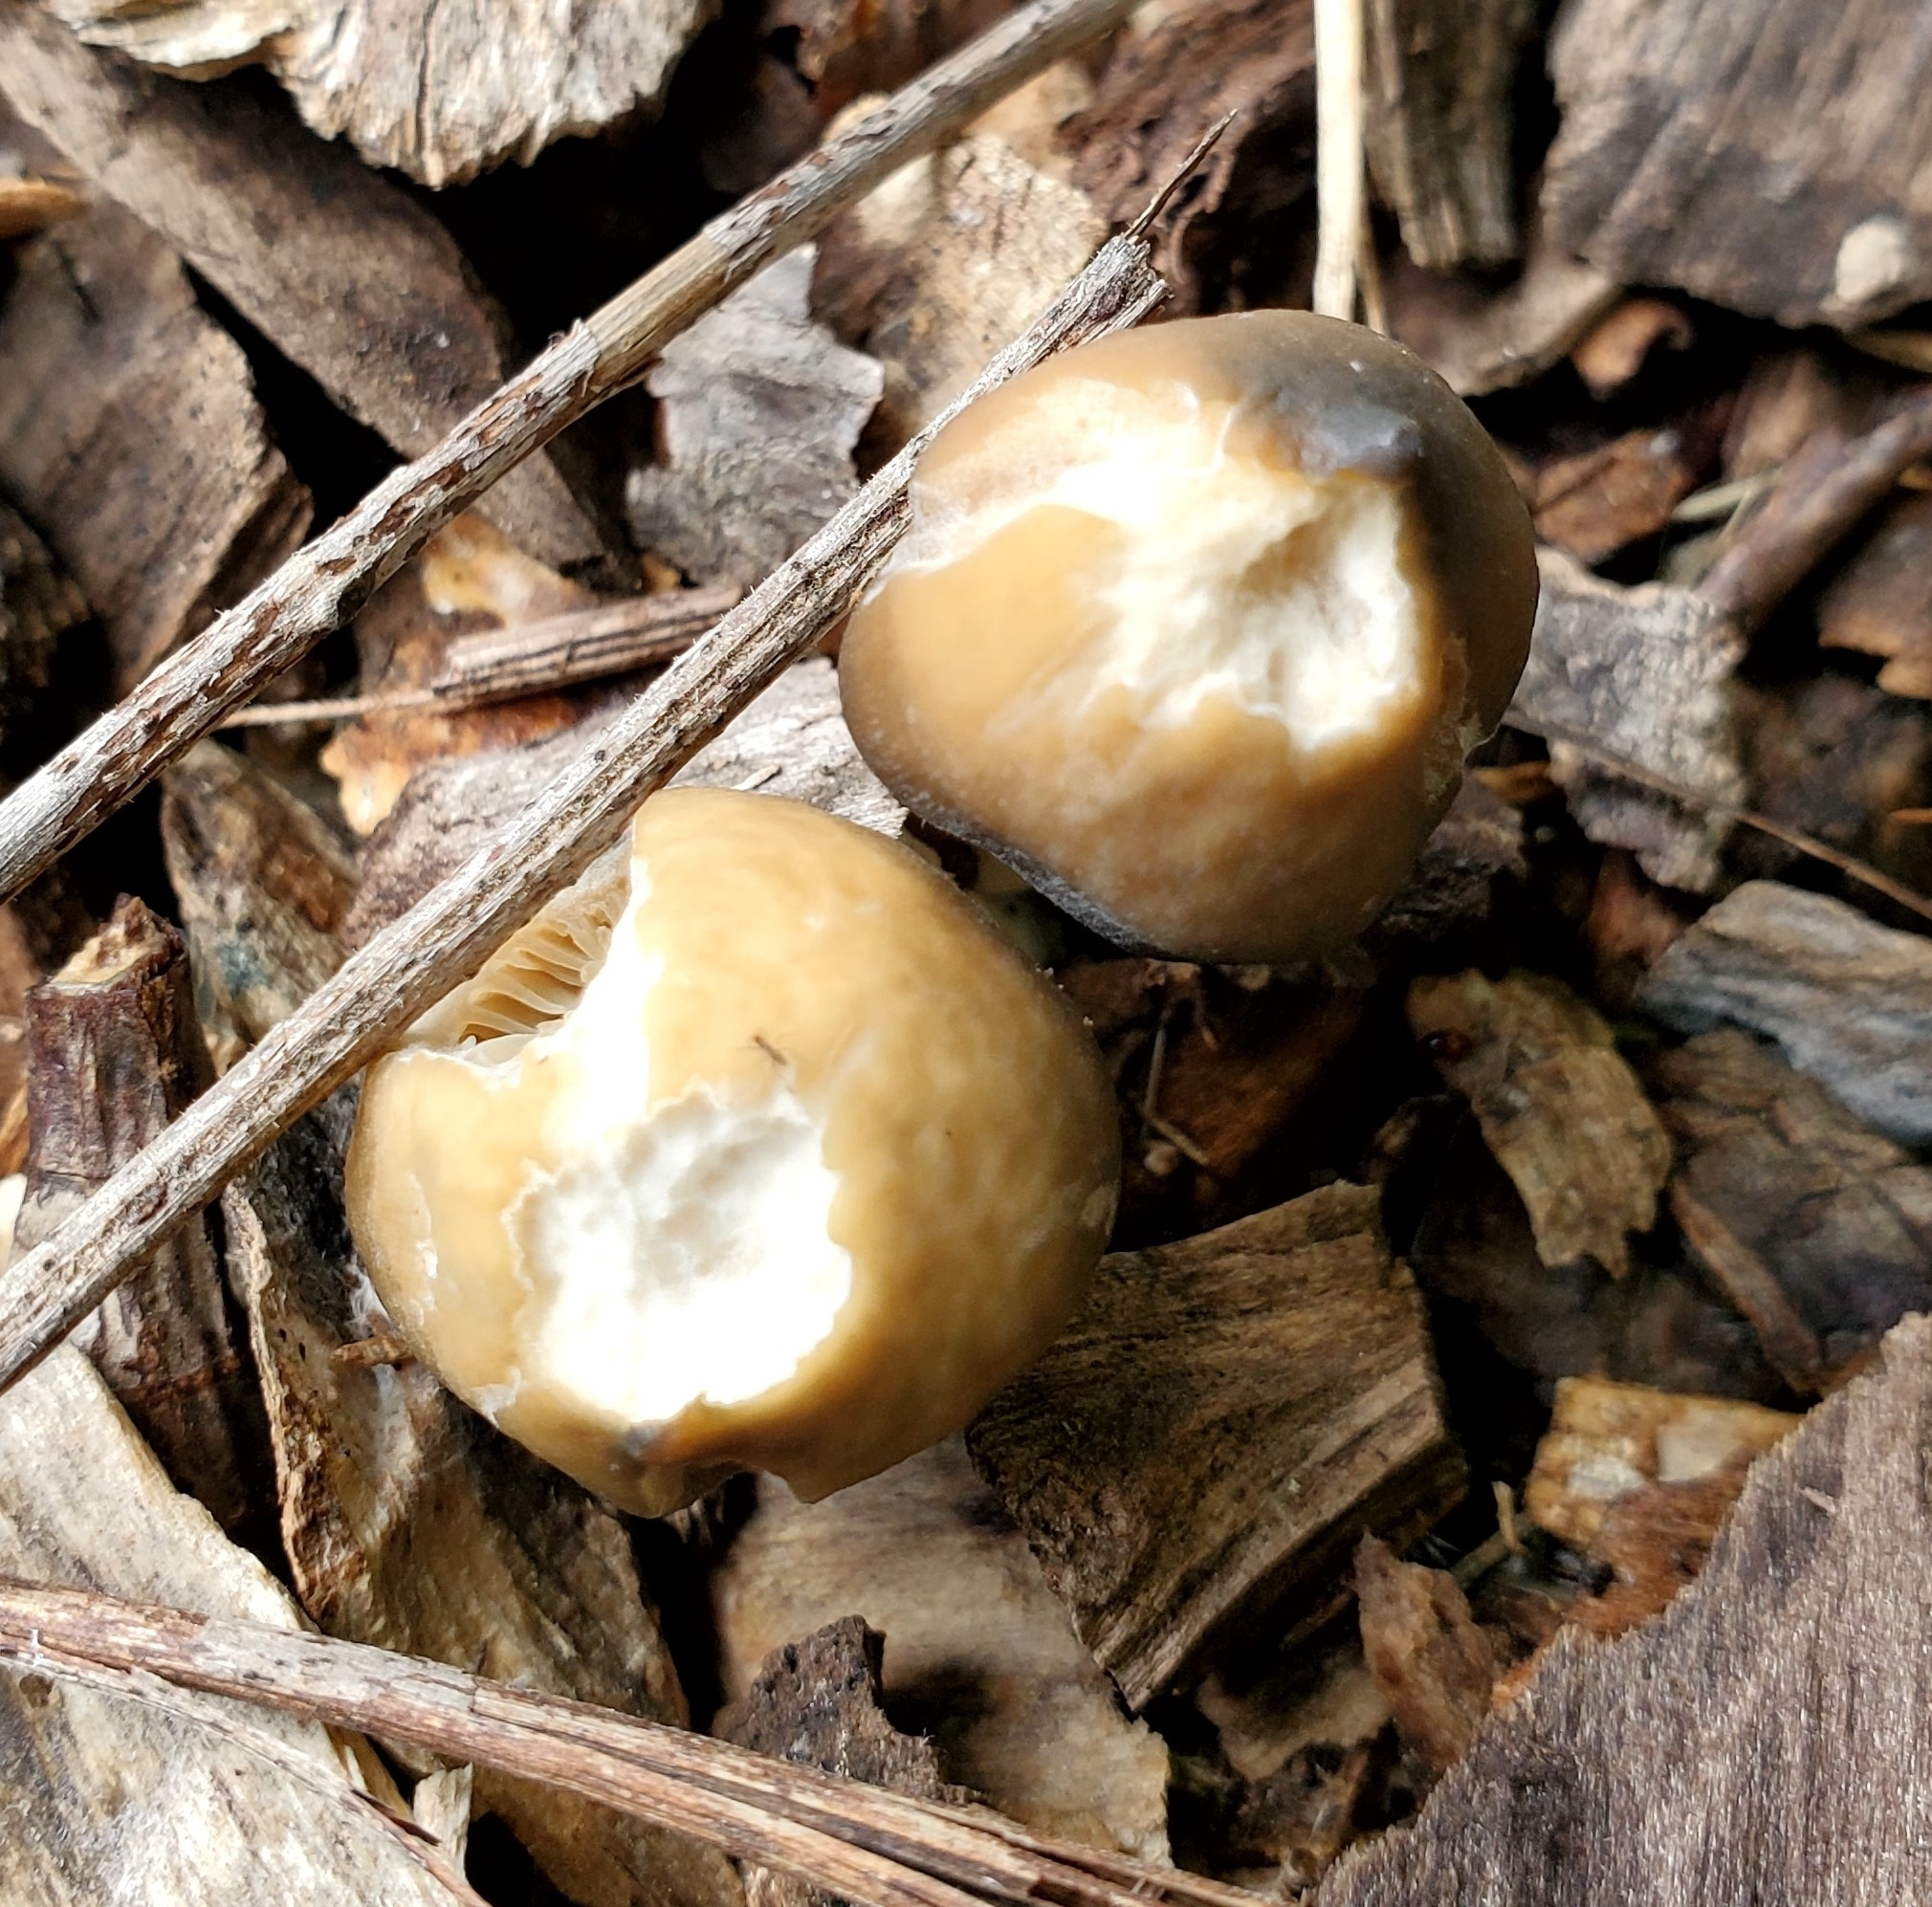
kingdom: Fungi
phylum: Basidiomycota
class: Agaricomycetes
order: Agaricales
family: Hymenogastraceae
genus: Psilocybe
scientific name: Psilocybe ovoideocystidiata
